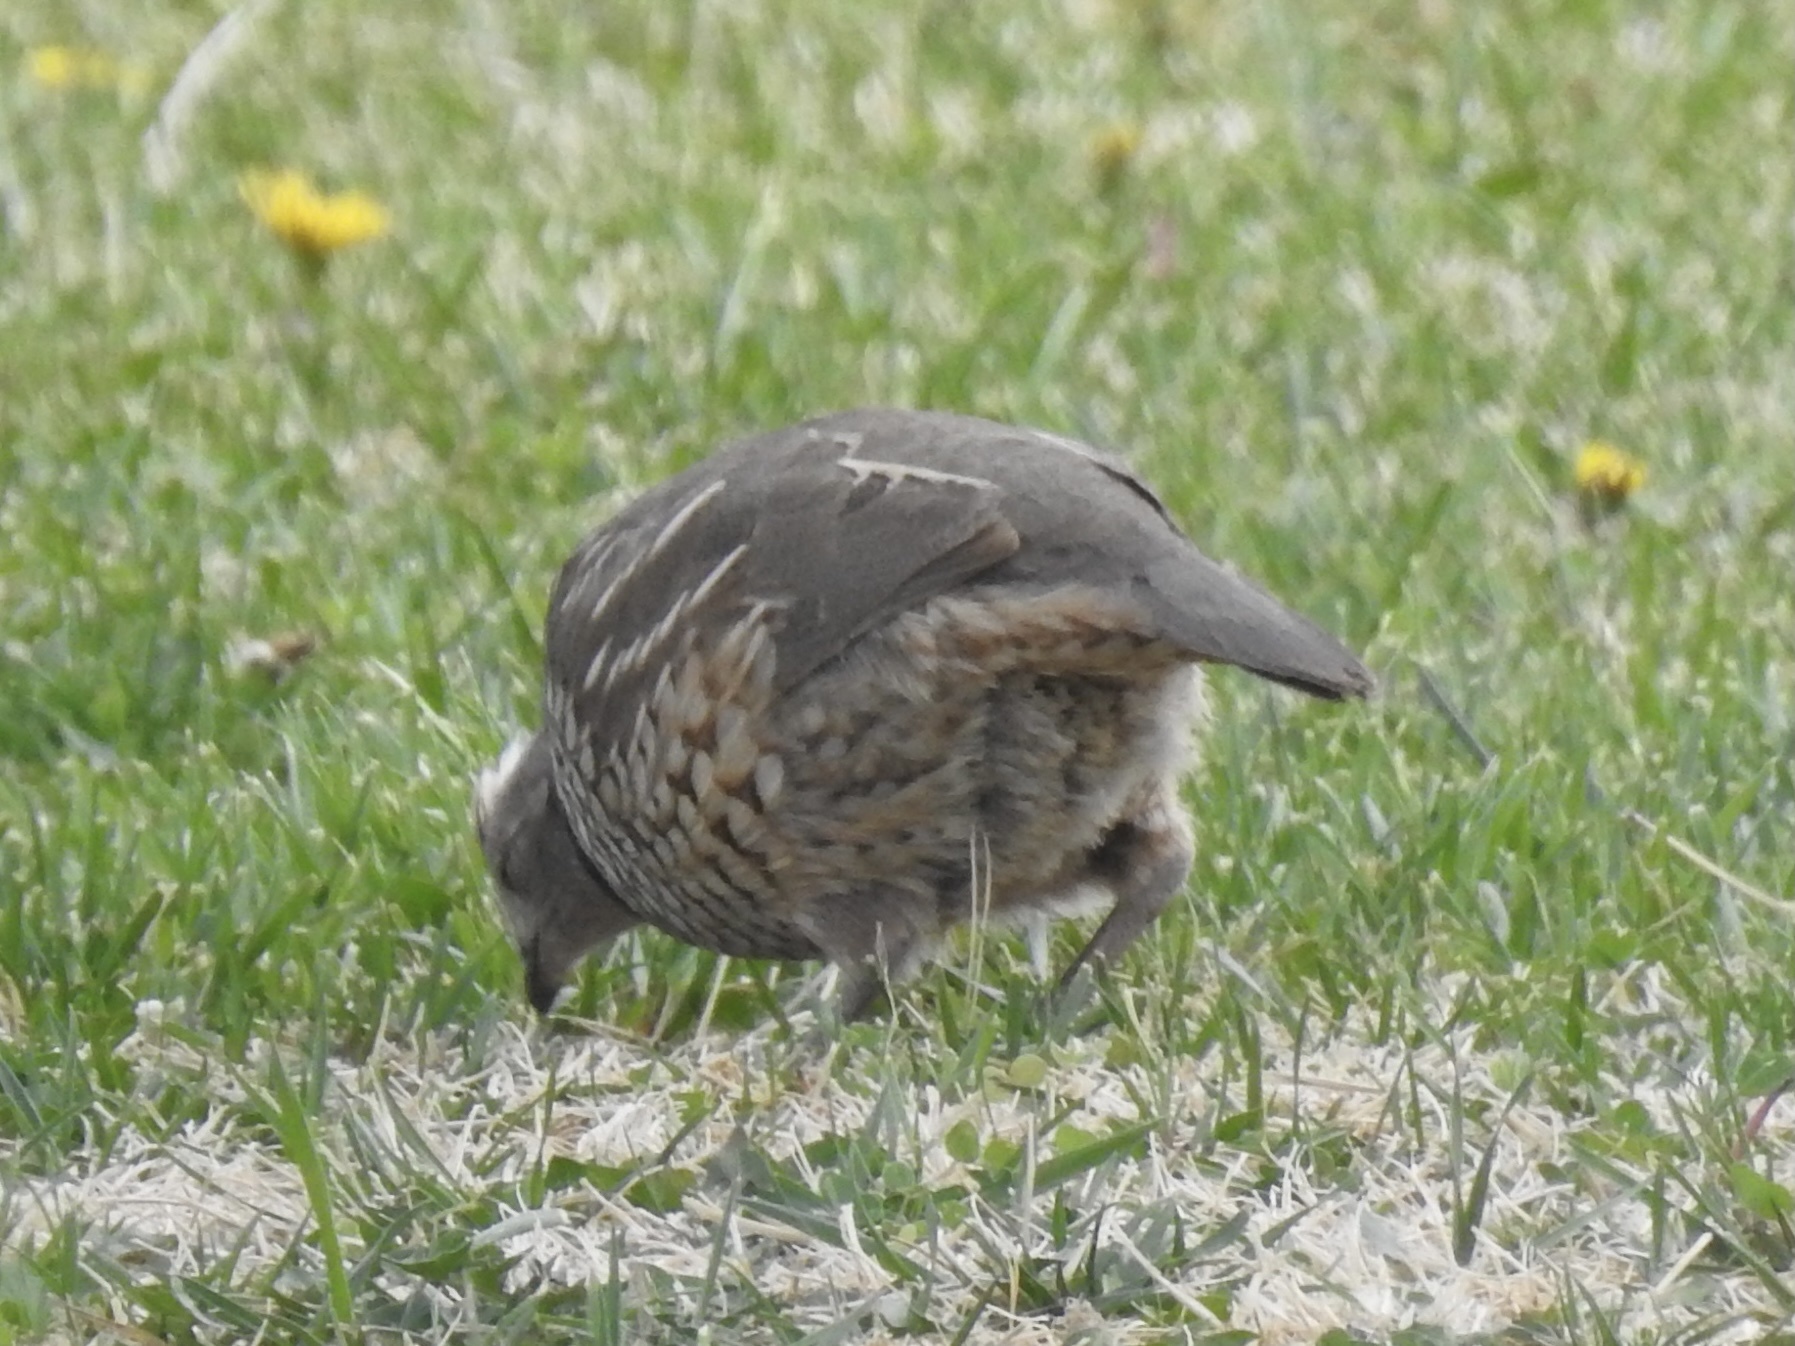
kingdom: Animalia
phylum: Chordata
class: Aves
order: Galliformes
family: Odontophoridae
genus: Callipepla
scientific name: Callipepla squamata
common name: Scaled quail
